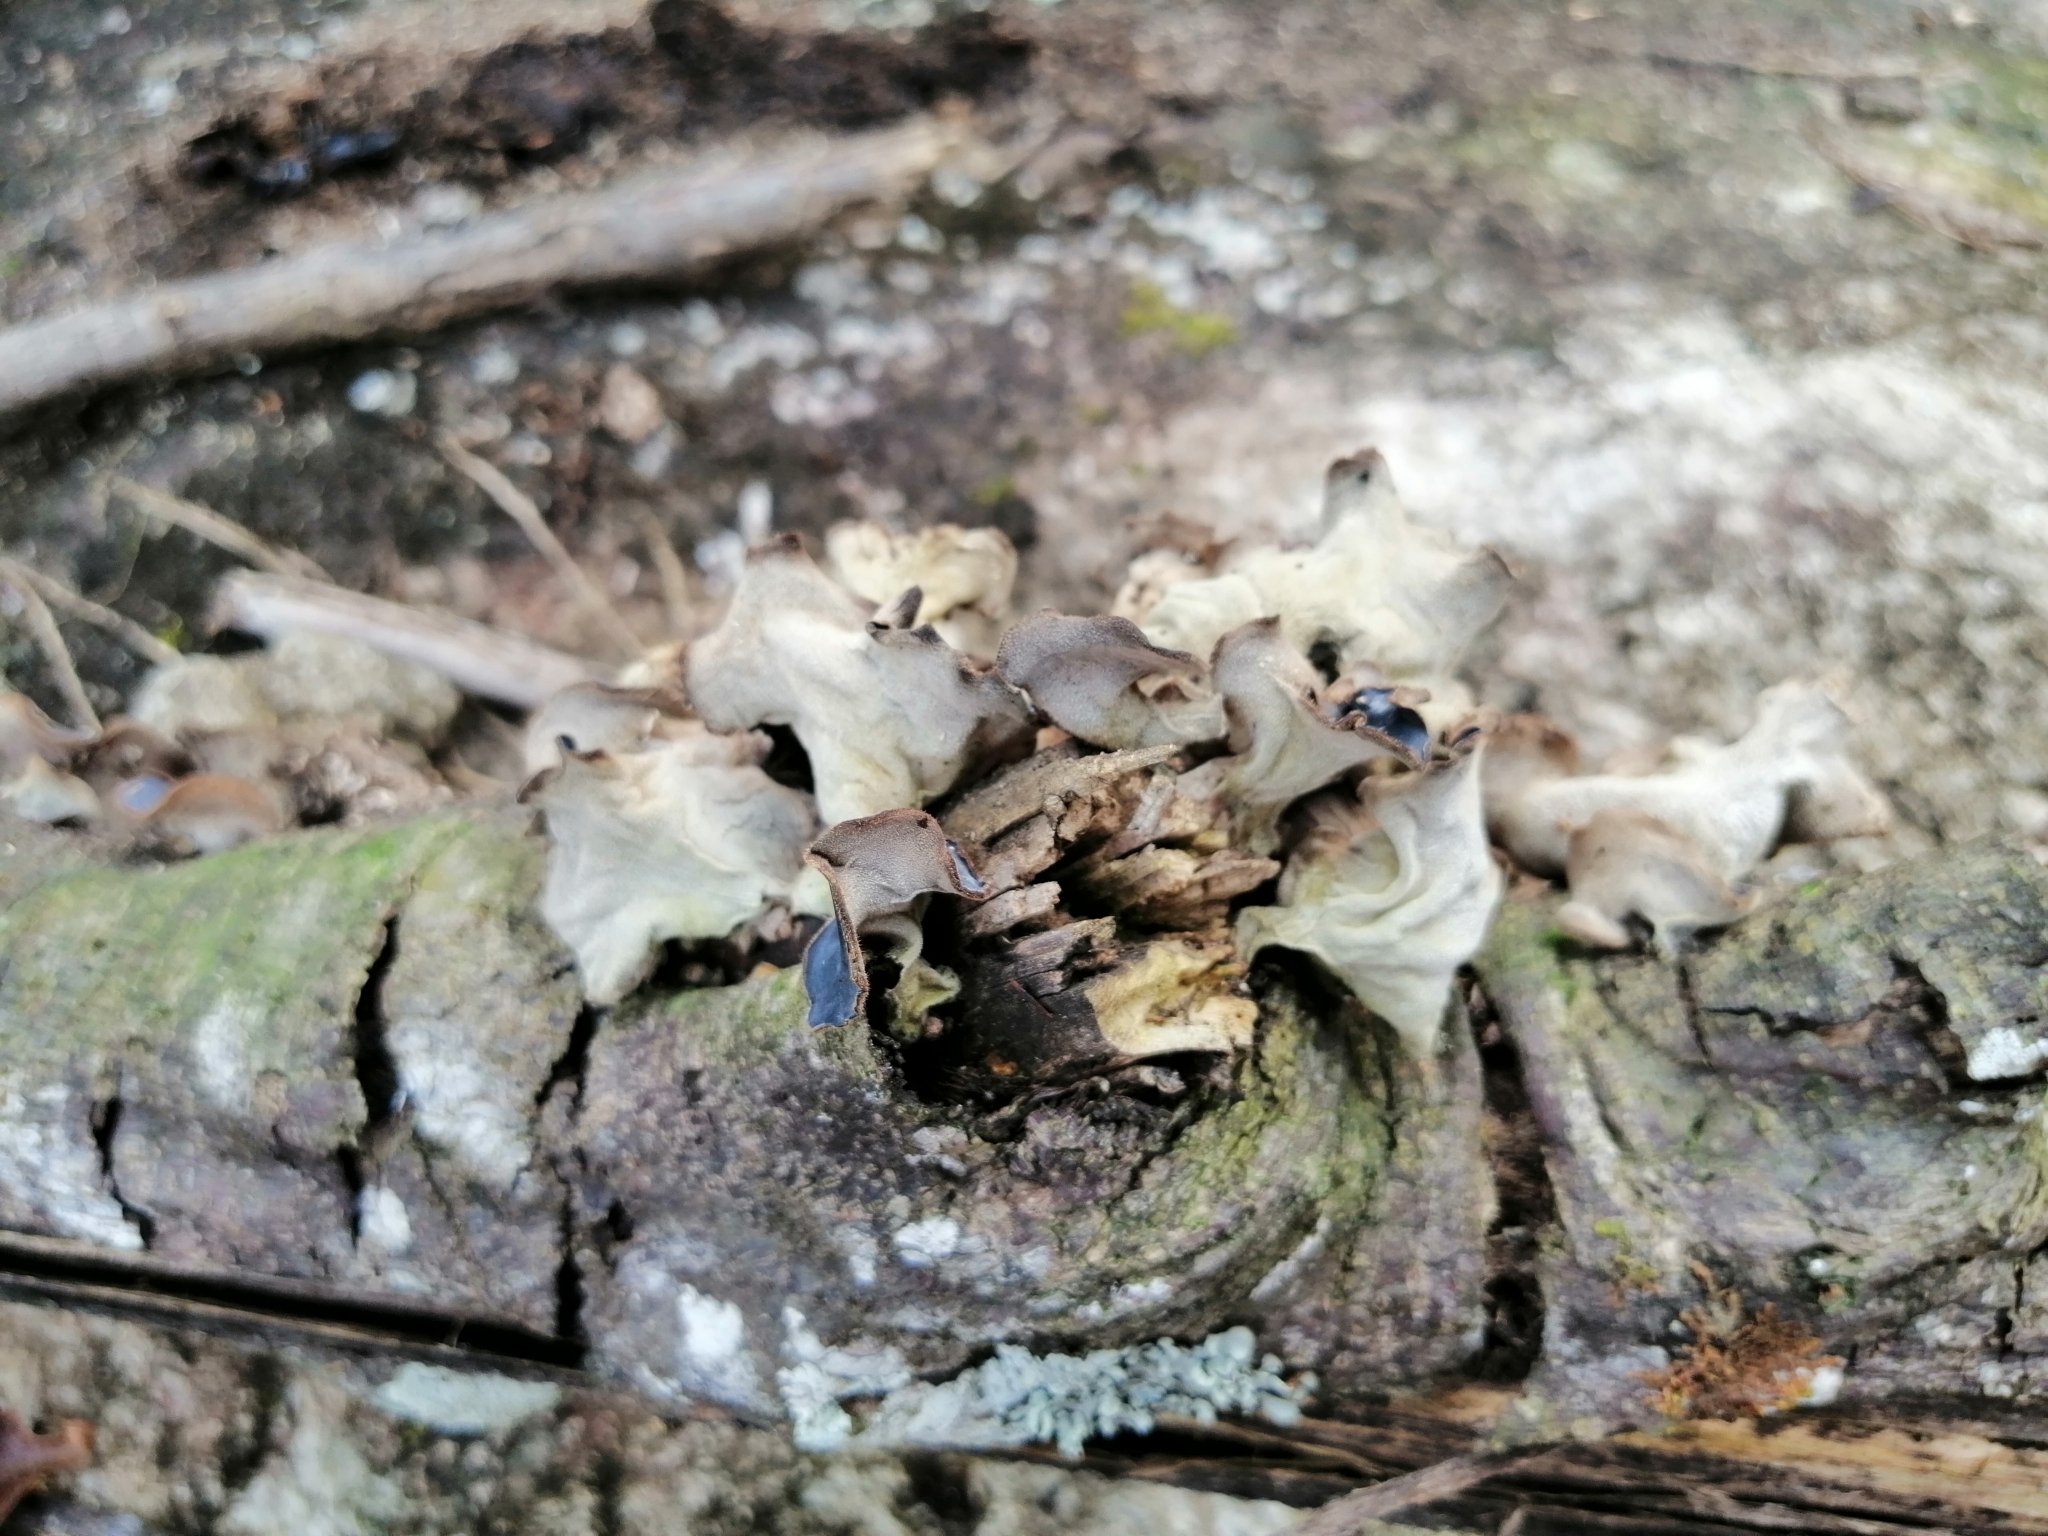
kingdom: Fungi
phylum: Basidiomycota
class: Agaricomycetes
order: Auriculariales
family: Auriculariaceae
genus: Auricularia
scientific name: Auricularia nigricans
